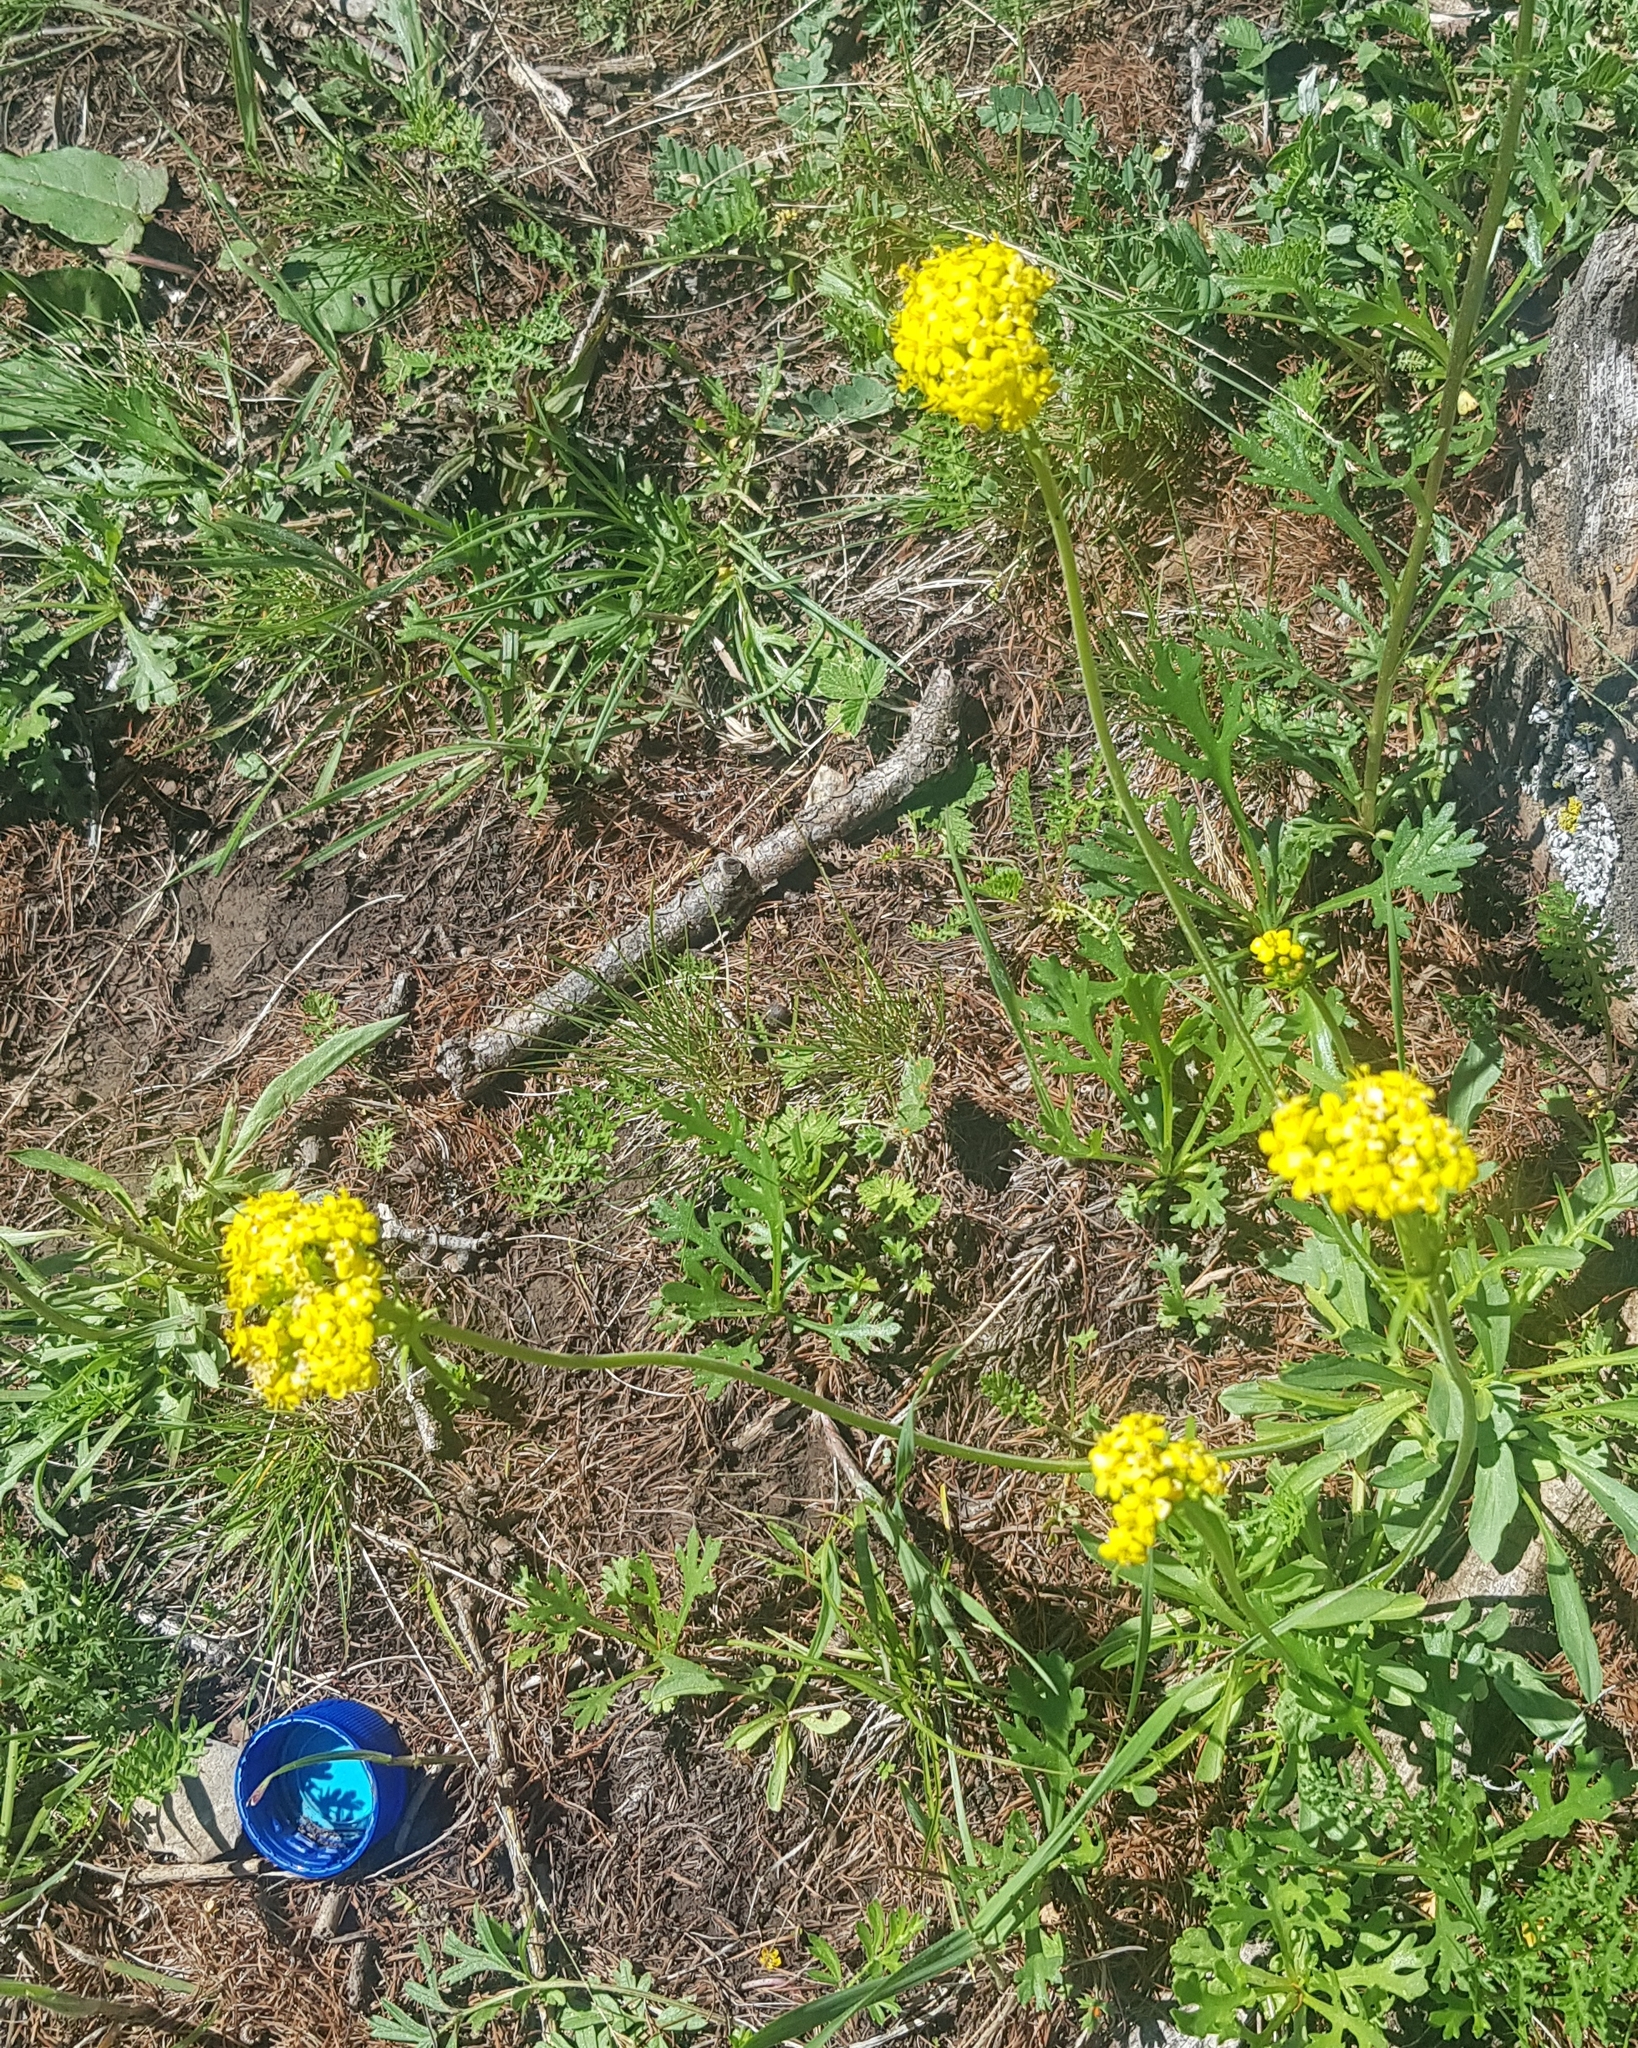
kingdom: Plantae
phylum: Tracheophyta
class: Magnoliopsida
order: Dipsacales
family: Caprifoliaceae
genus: Patrinia
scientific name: Patrinia sibirica
